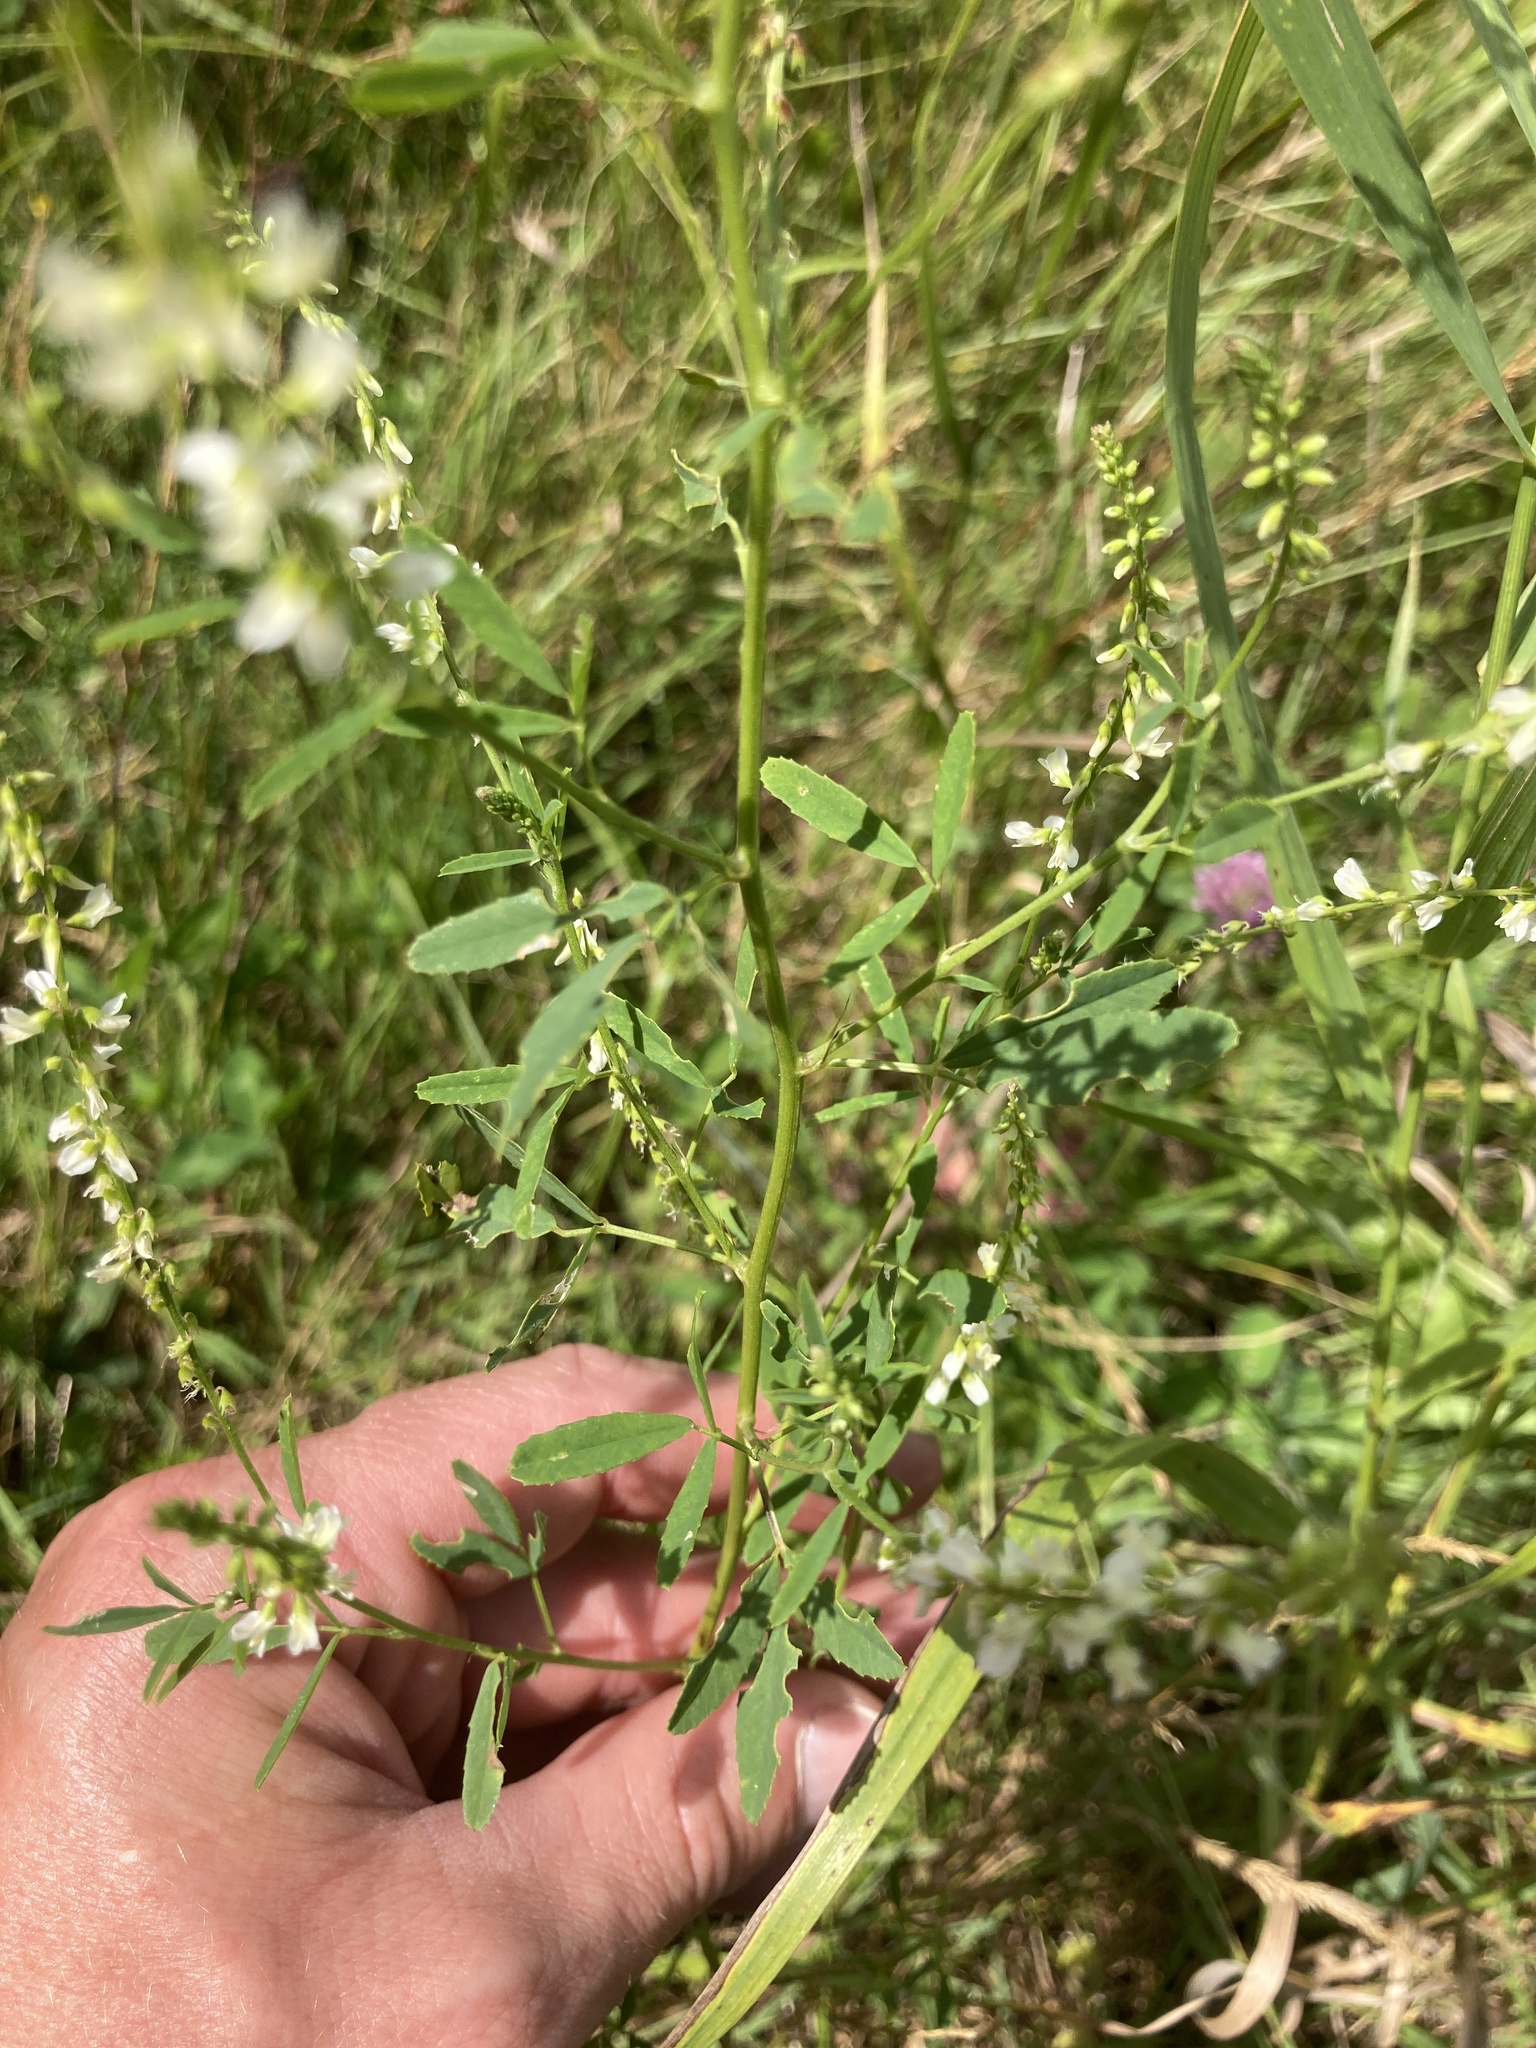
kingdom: Plantae
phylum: Tracheophyta
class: Magnoliopsida
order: Fabales
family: Fabaceae
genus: Melilotus
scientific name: Melilotus albus
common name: White melilot
